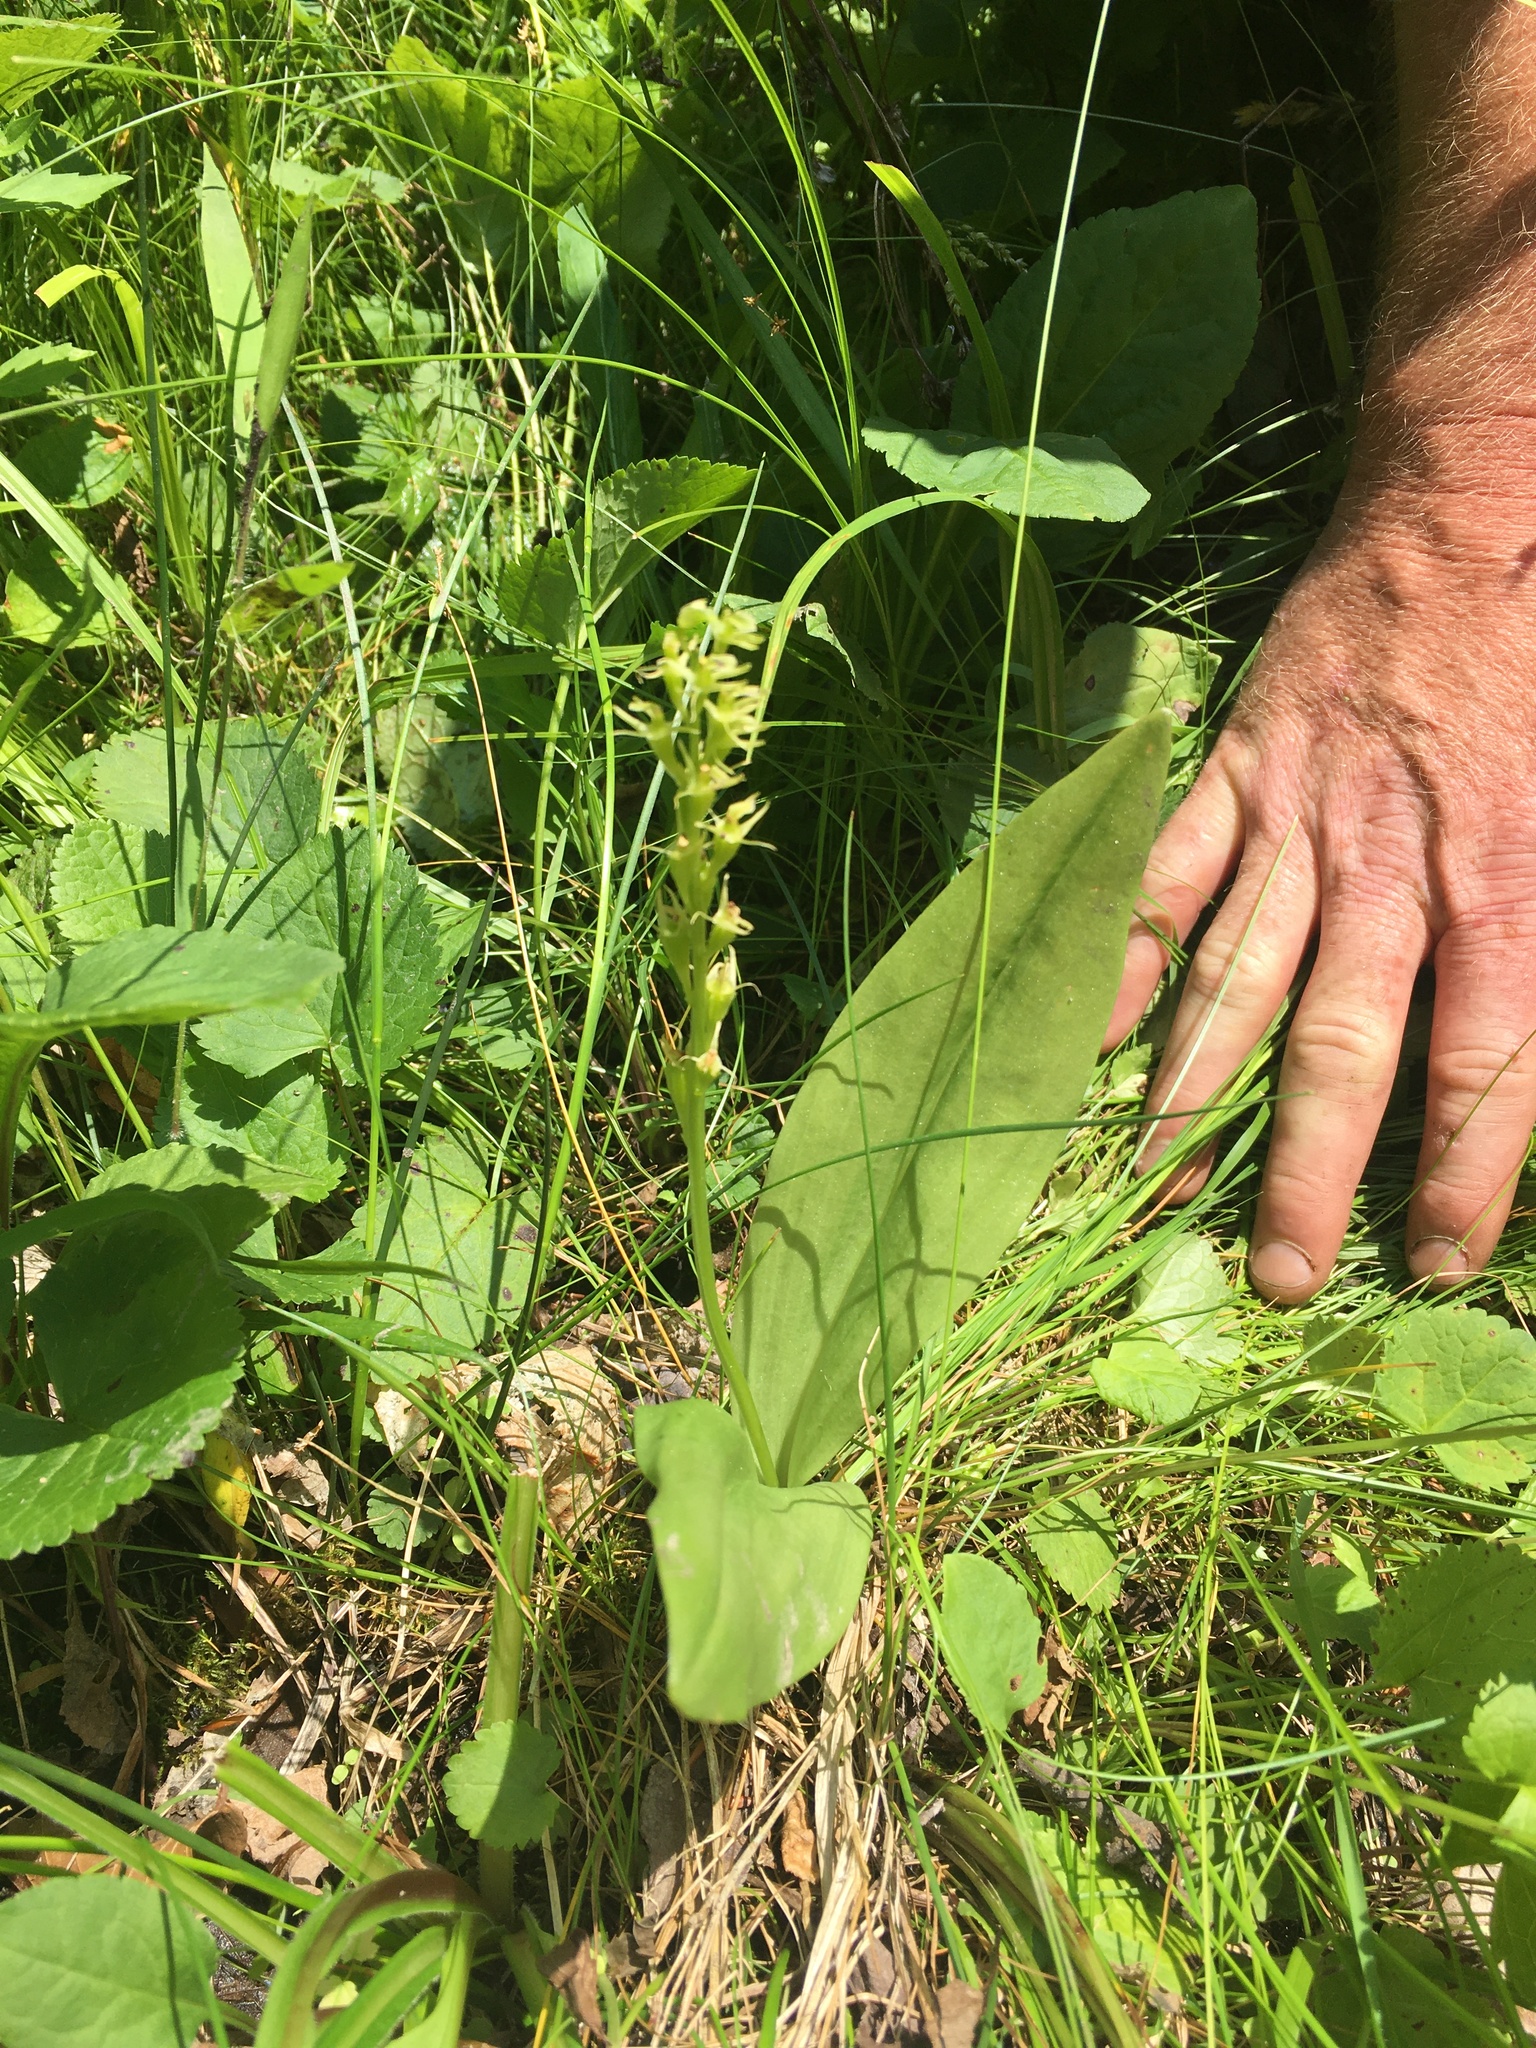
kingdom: Animalia
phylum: Arthropoda
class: Insecta
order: Coleoptera
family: Curculionidae
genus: Liparis
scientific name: Liparis loeselii
